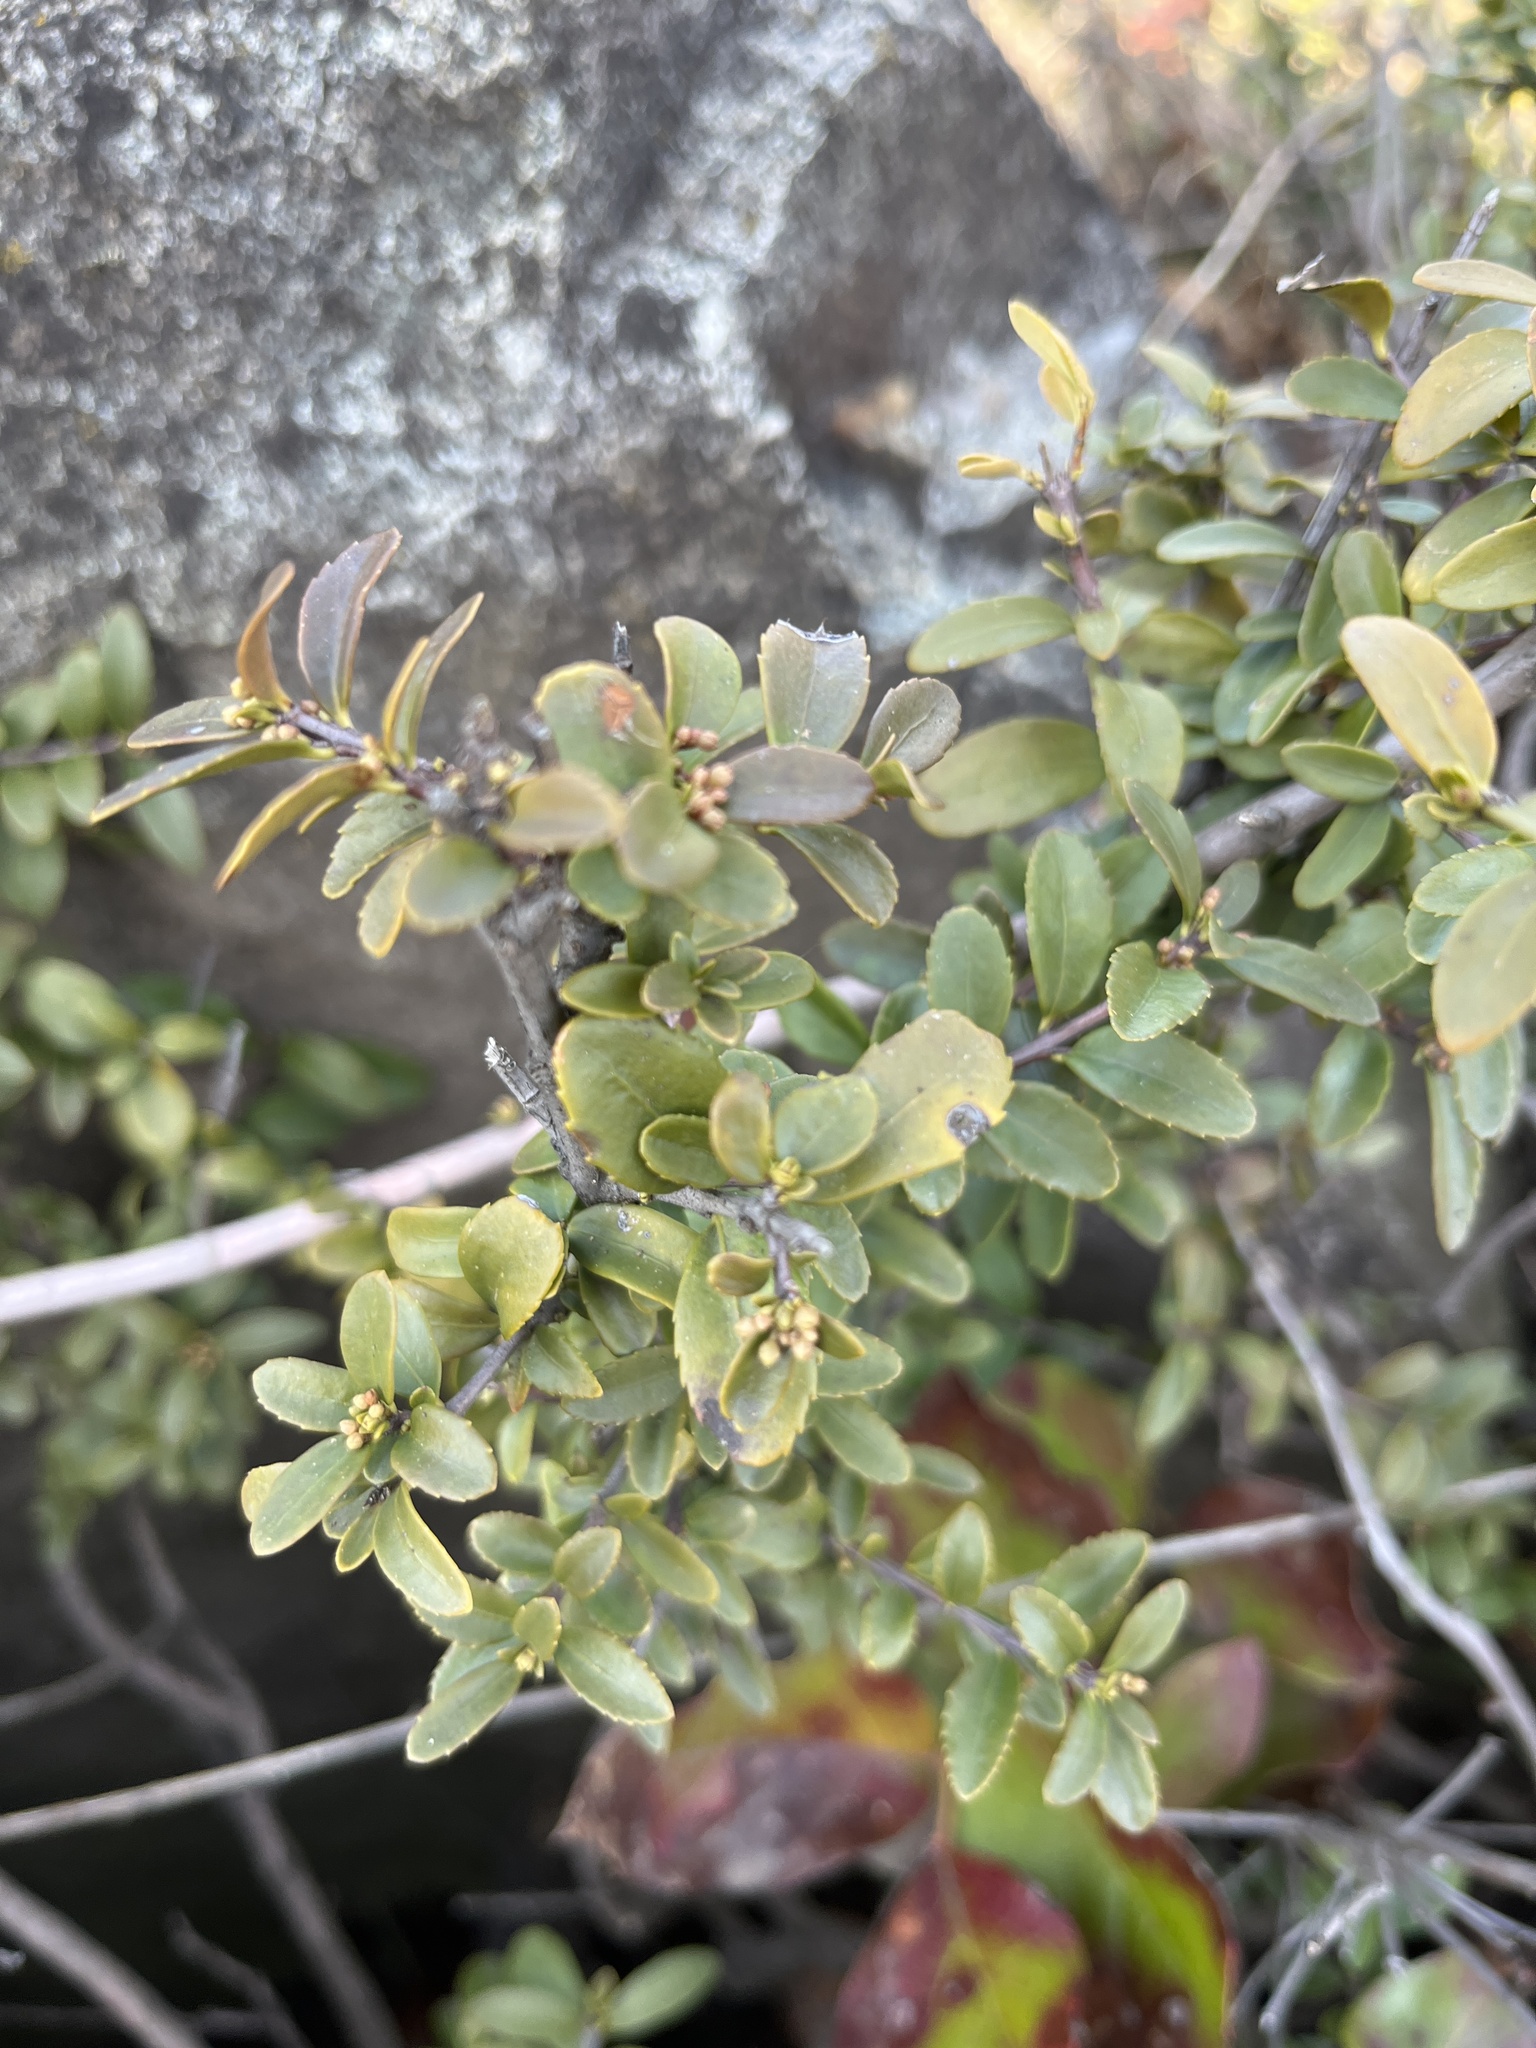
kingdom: Plantae
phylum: Tracheophyta
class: Magnoliopsida
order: Celastrales
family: Celastraceae
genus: Paxistima
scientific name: Paxistima myrsinites
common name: Mountain-lover
